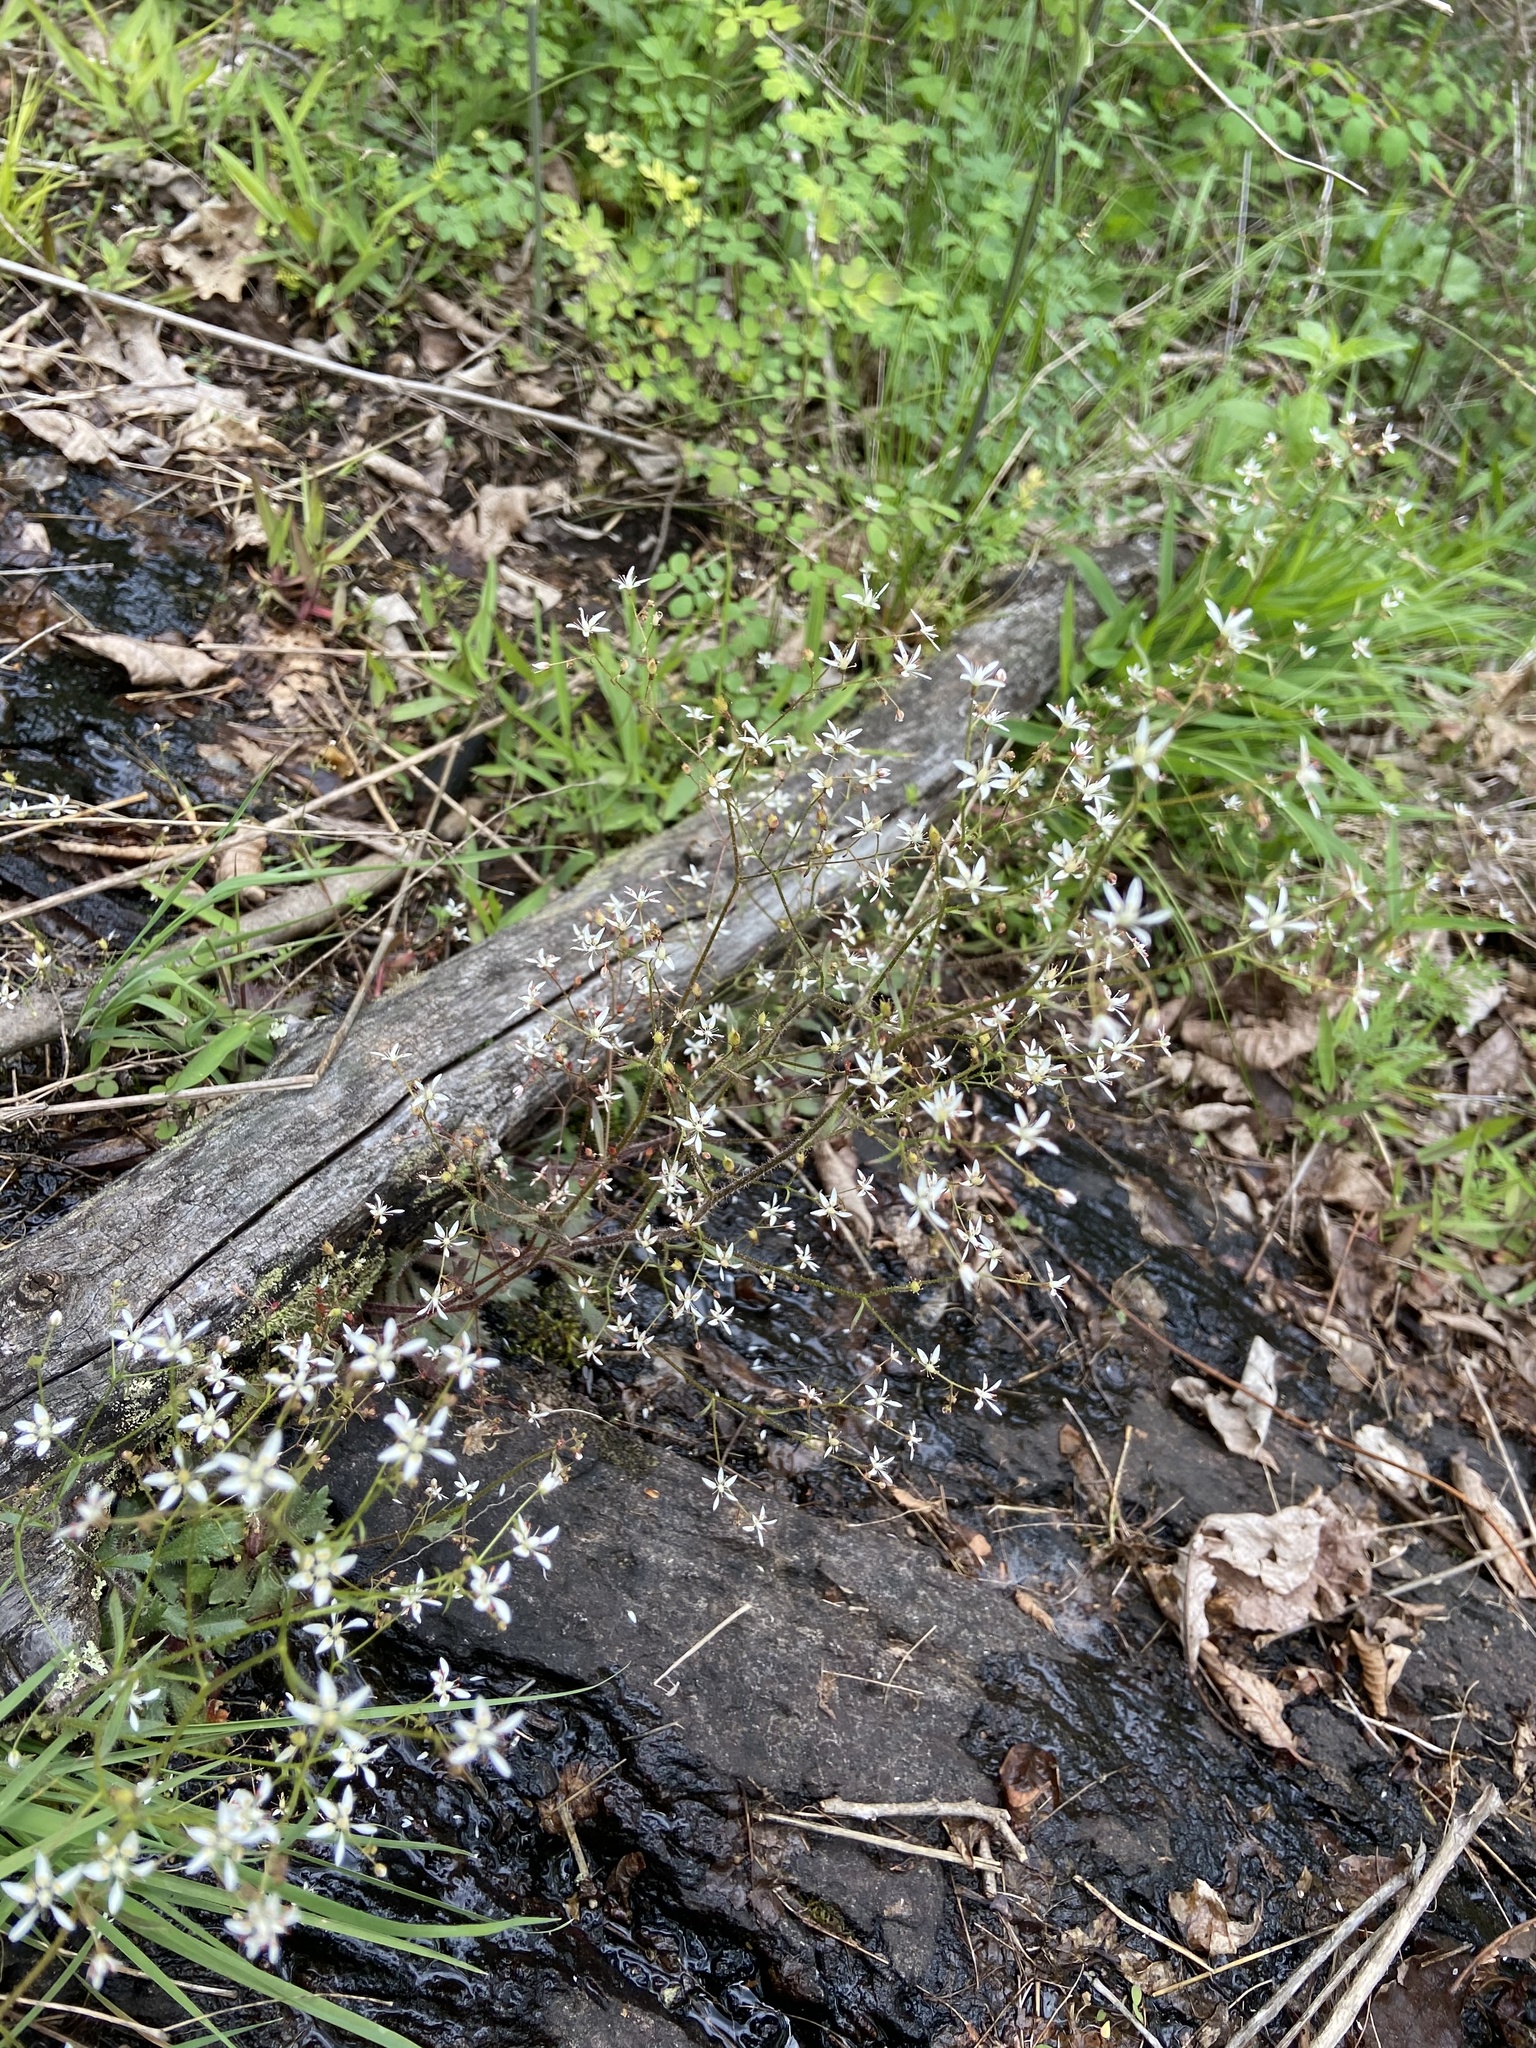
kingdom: Plantae
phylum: Tracheophyta
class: Magnoliopsida
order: Saxifragales
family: Saxifragaceae
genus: Micranthes
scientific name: Micranthes petiolaris
